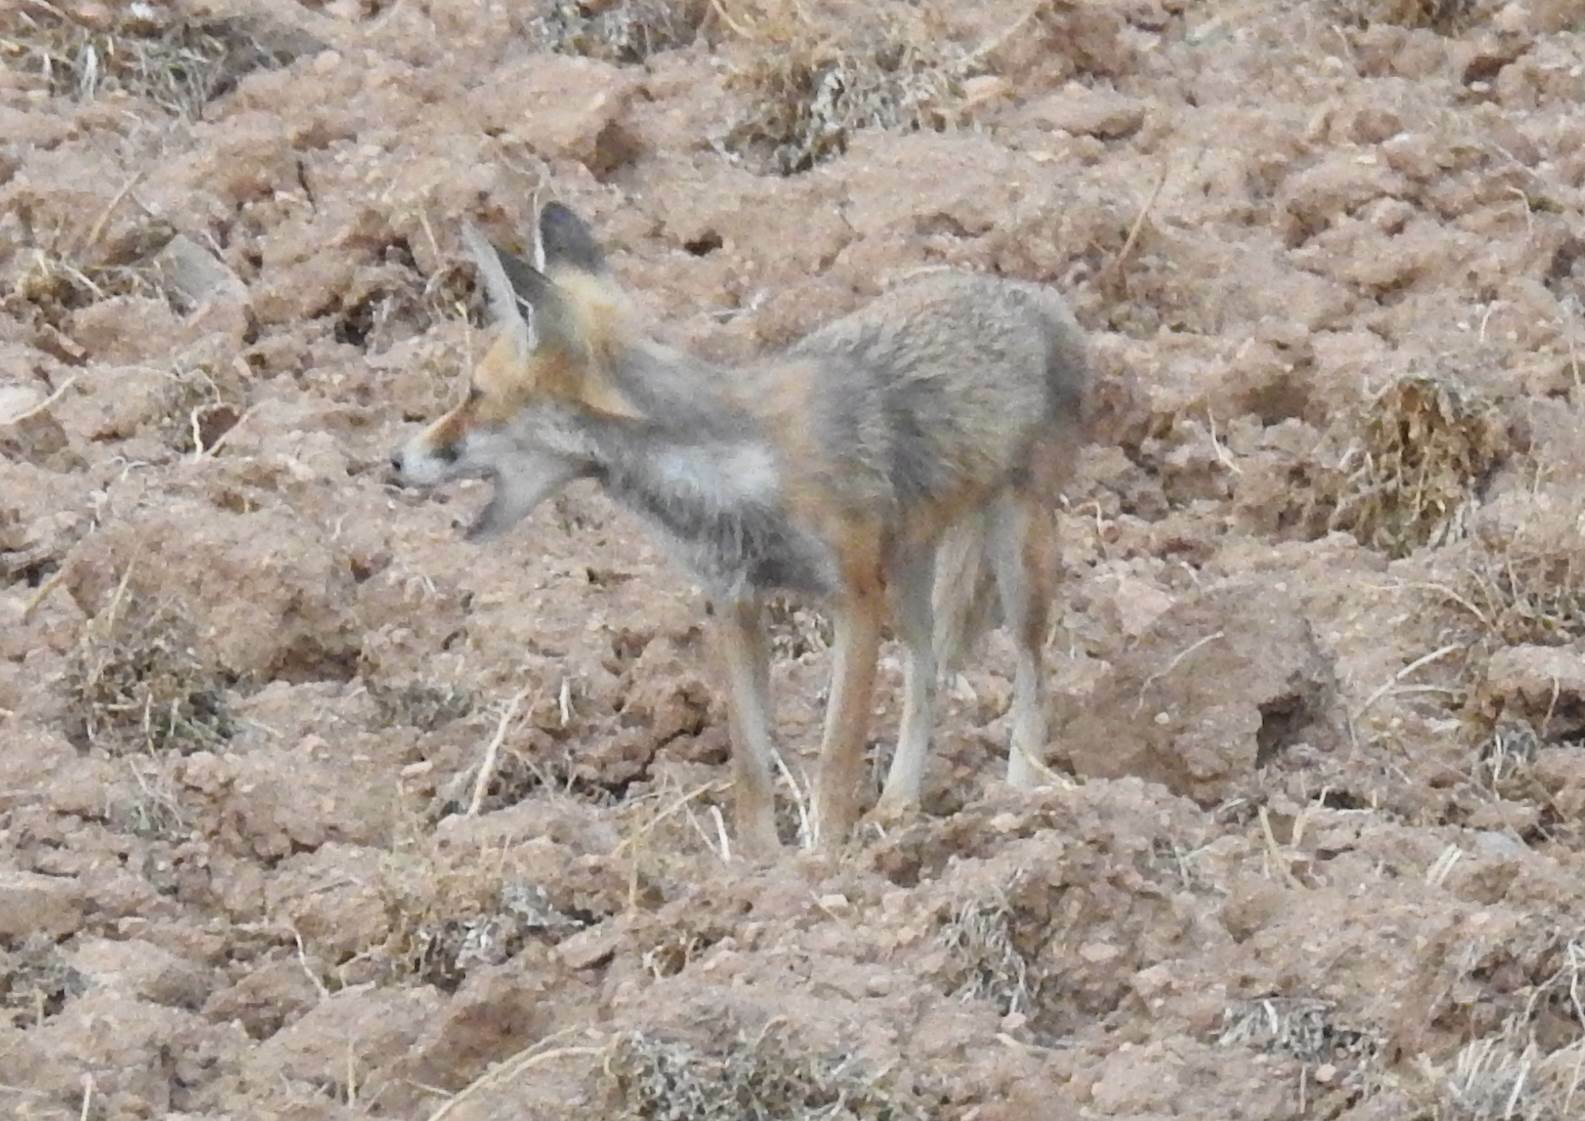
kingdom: Animalia
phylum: Chordata
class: Mammalia
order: Carnivora
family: Canidae
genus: Vulpes
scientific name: Vulpes vulpes
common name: Red fox
